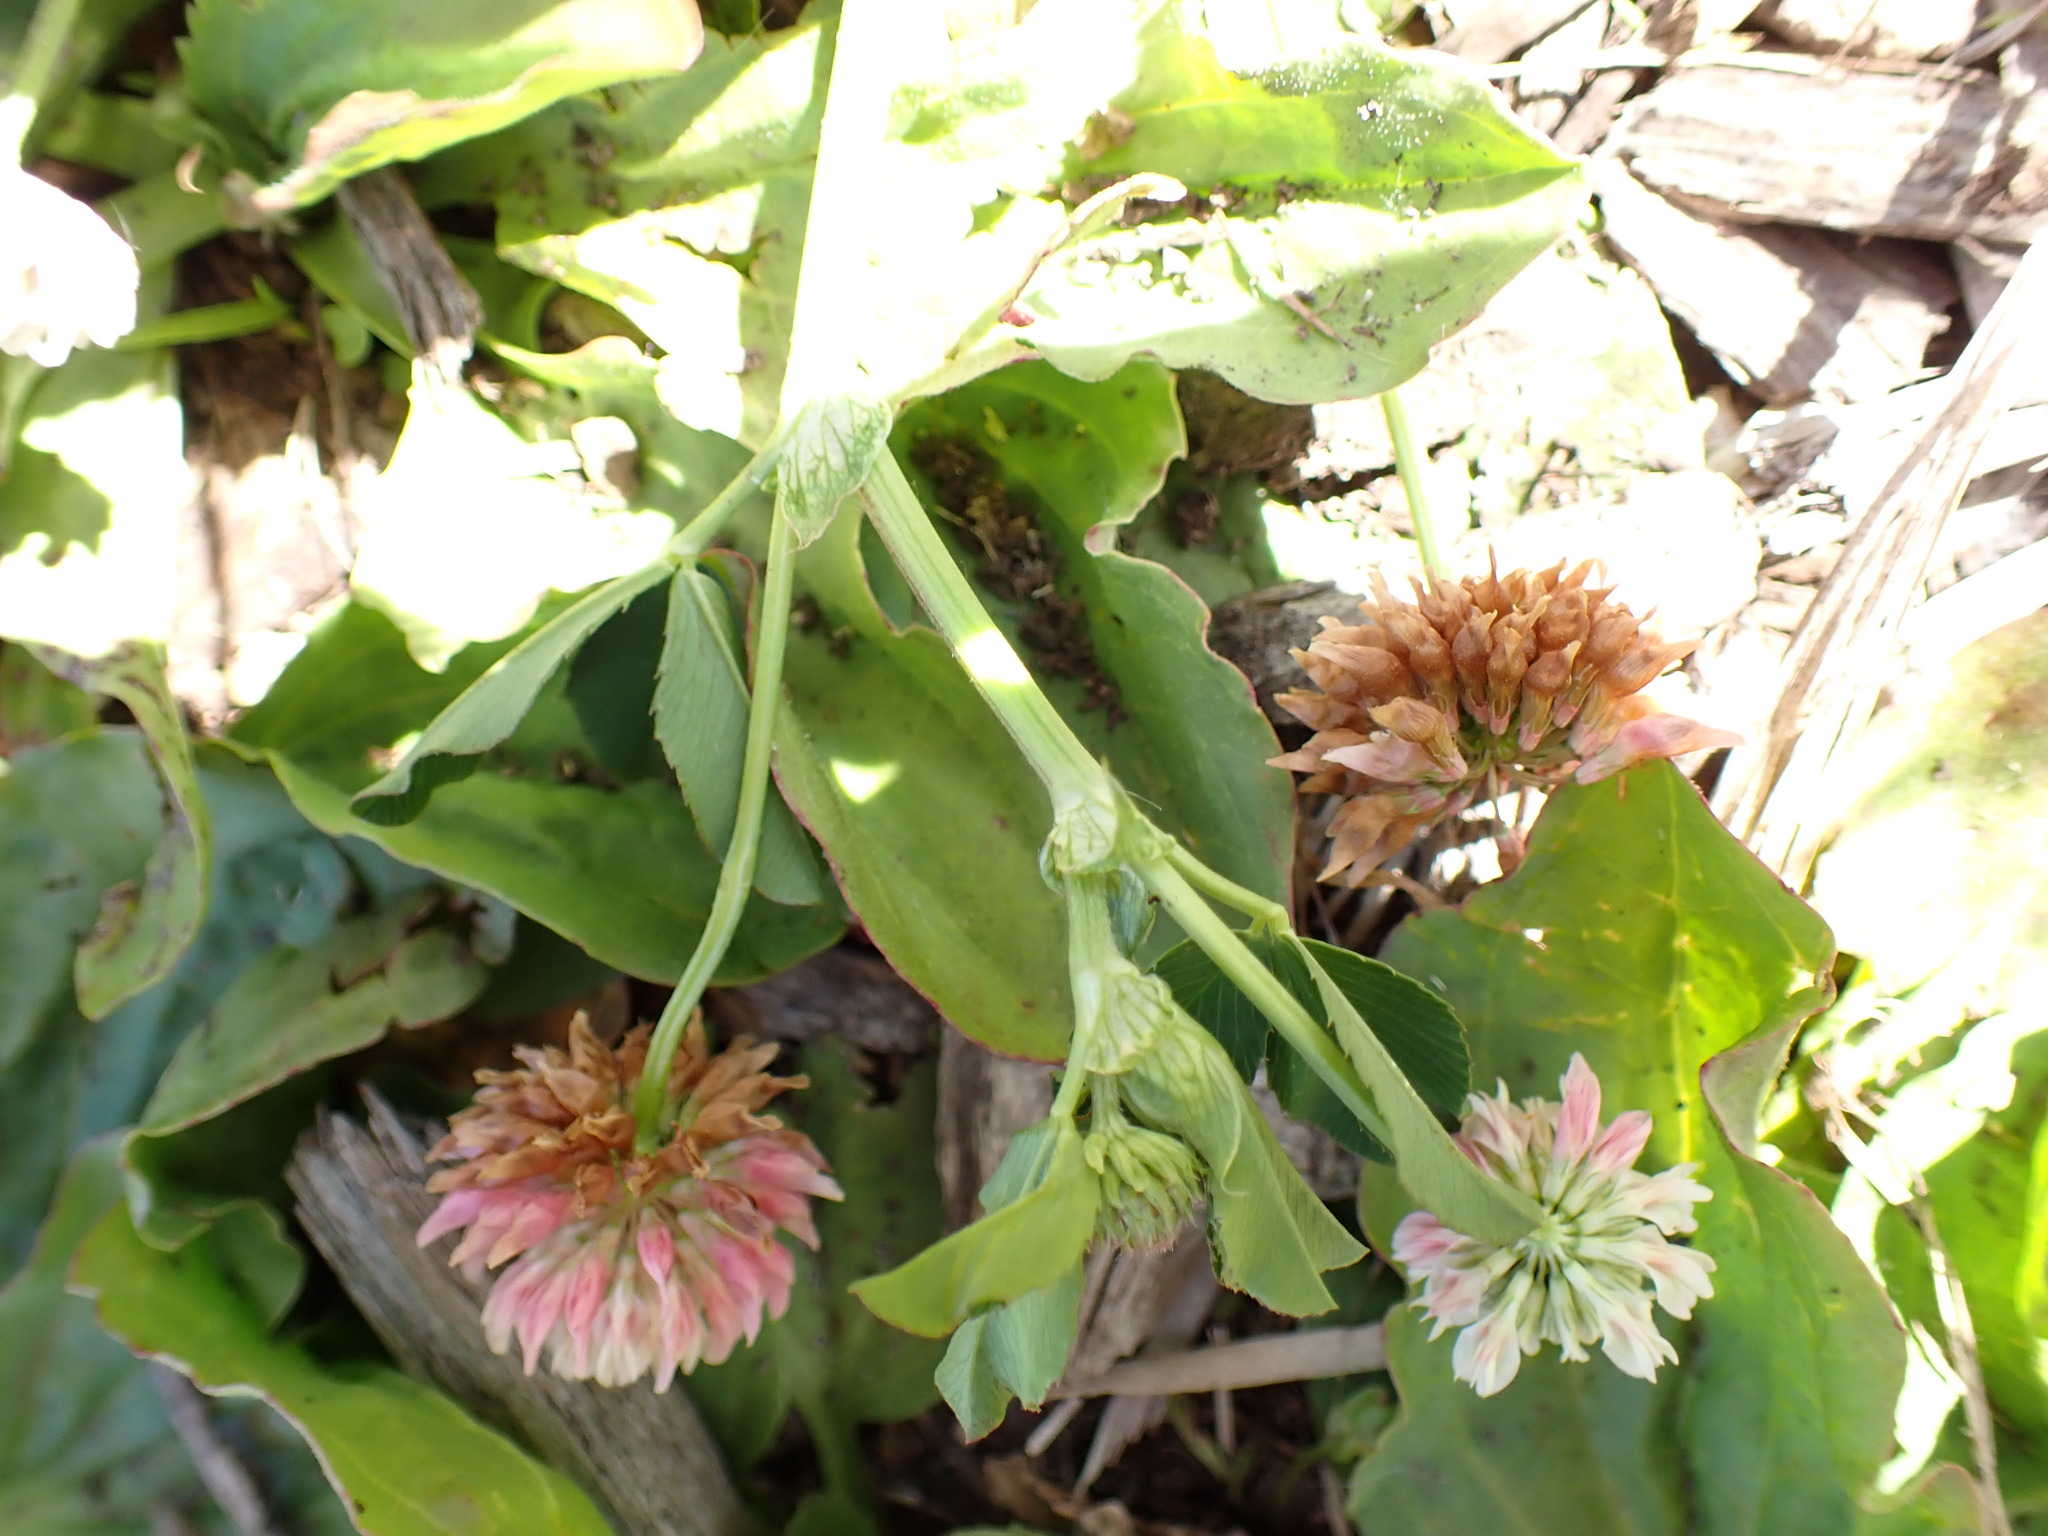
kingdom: Plantae
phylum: Tracheophyta
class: Magnoliopsida
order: Fabales
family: Fabaceae
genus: Trifolium
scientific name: Trifolium hybridum
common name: Alsike clover
